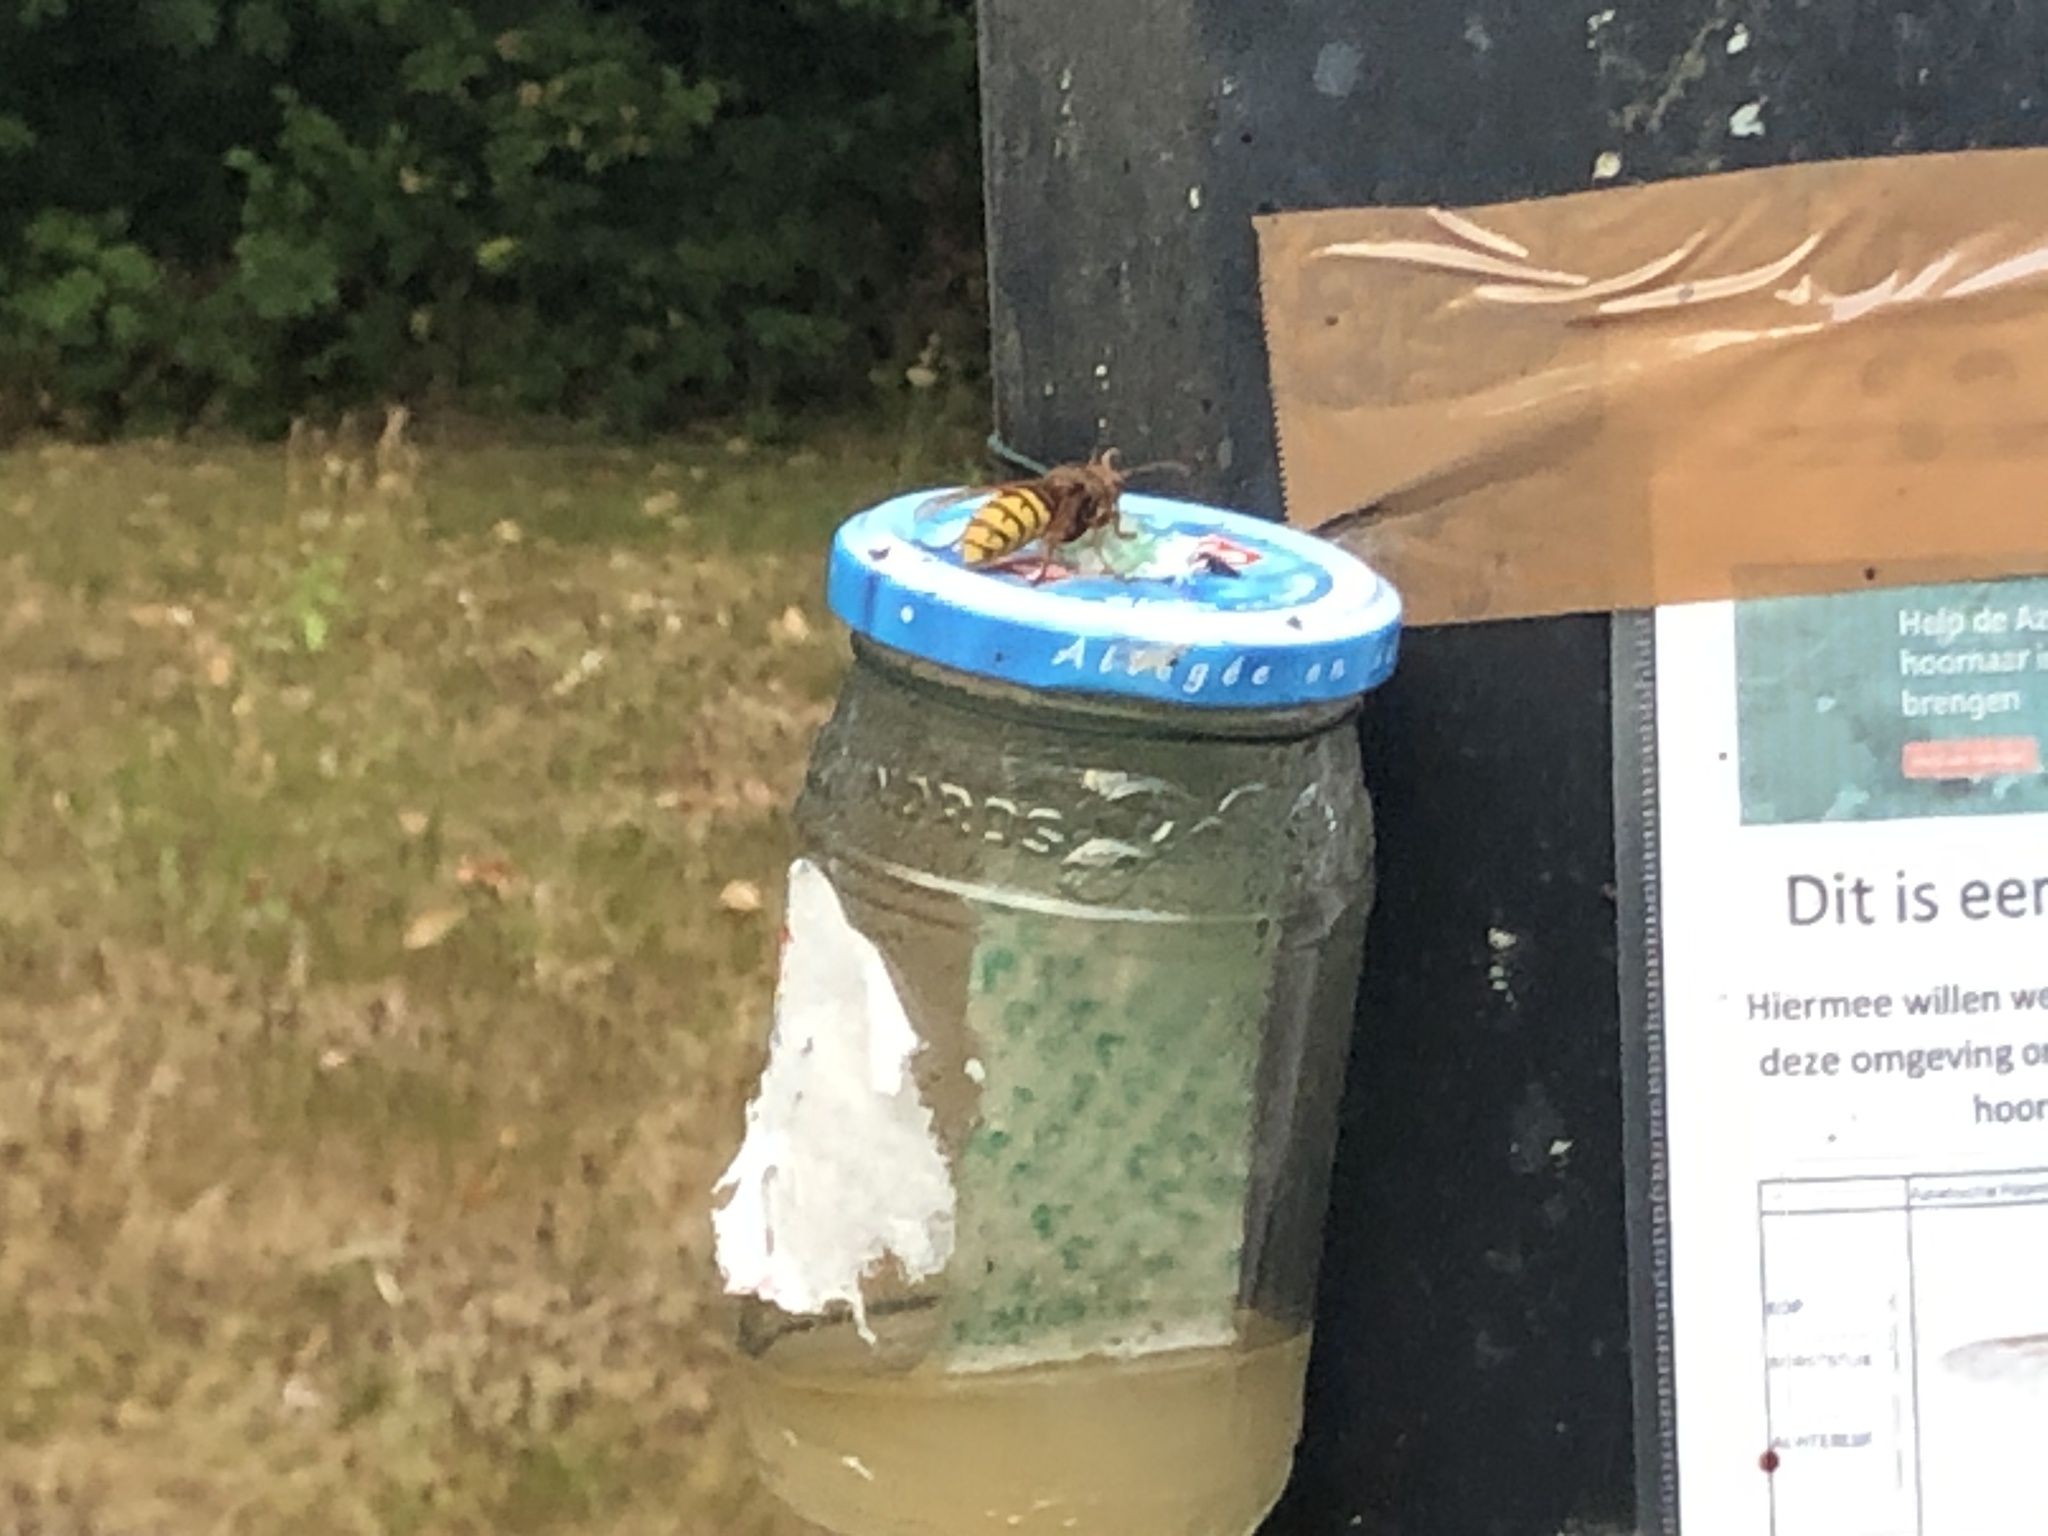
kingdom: Animalia
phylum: Arthropoda
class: Insecta
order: Hymenoptera
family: Vespidae
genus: Vespa
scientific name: Vespa crabro
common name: Hornet
